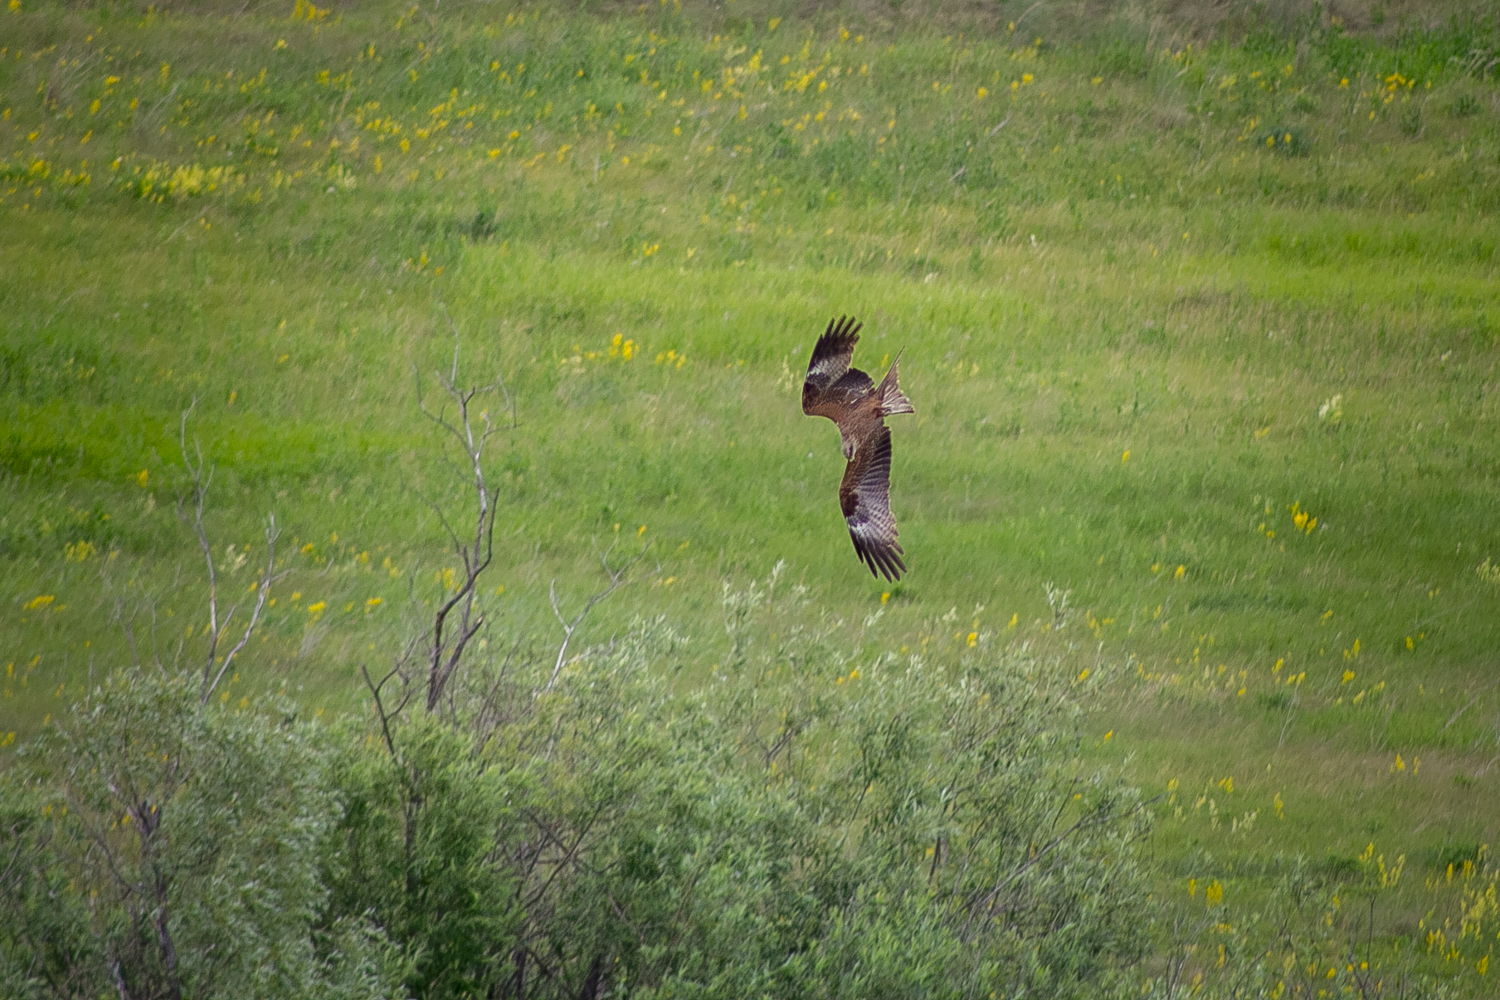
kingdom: Animalia
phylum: Chordata
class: Aves
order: Accipitriformes
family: Accipitridae
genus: Milvus
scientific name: Milvus migrans
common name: Black kite
